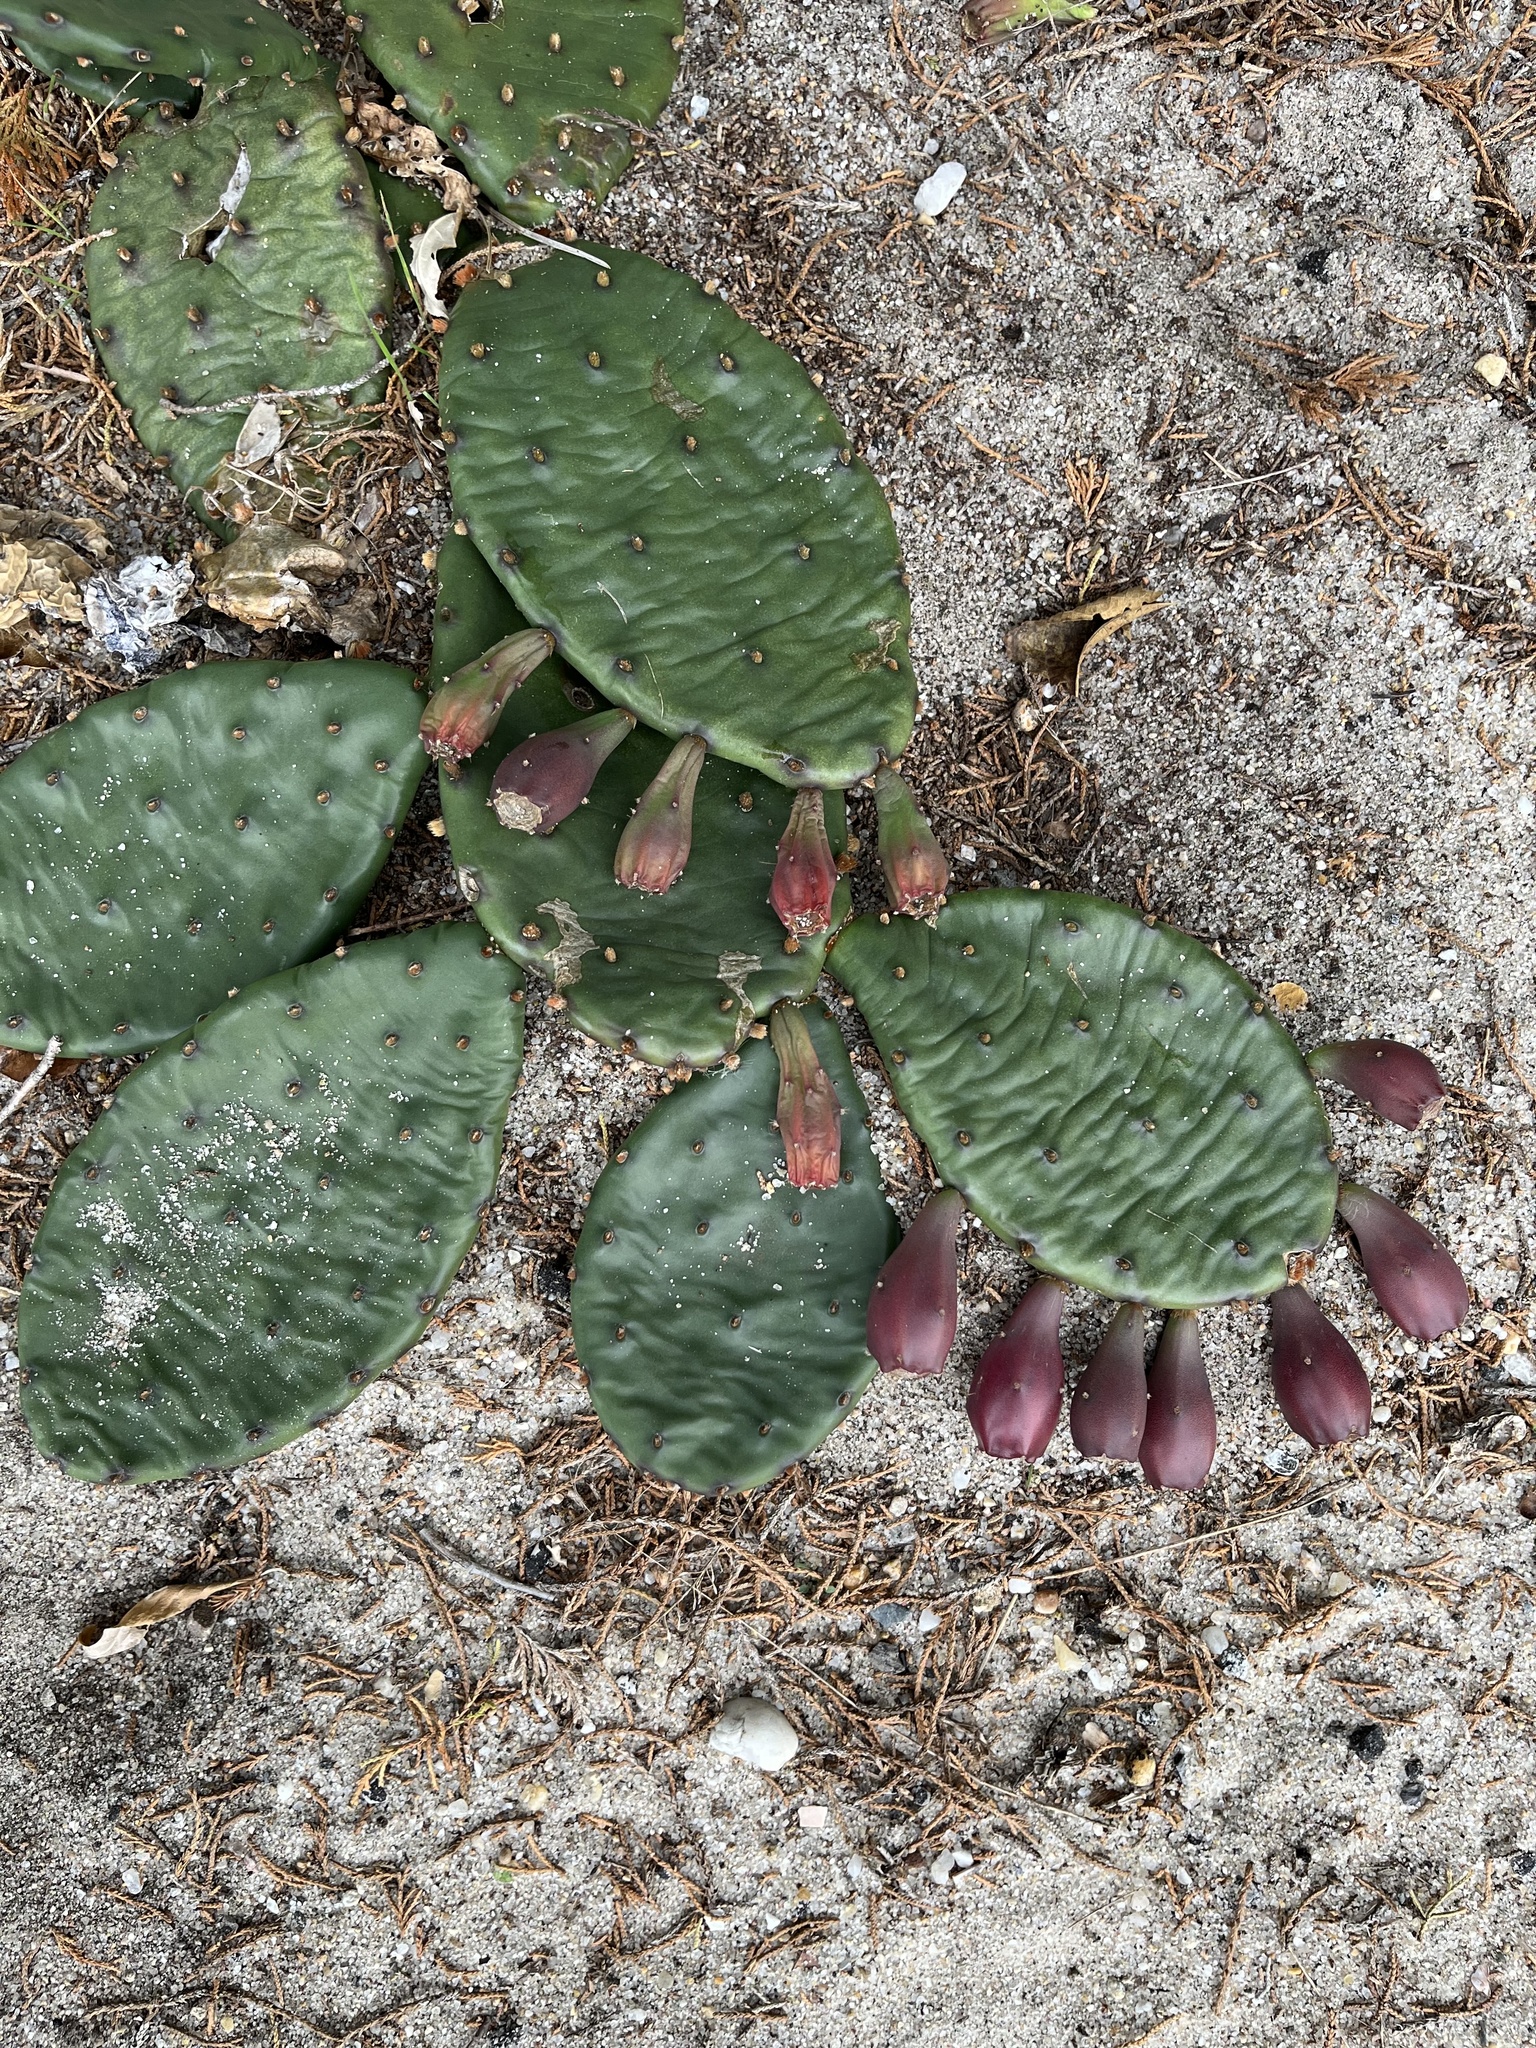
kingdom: Plantae
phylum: Tracheophyta
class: Magnoliopsida
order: Caryophyllales
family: Cactaceae
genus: Opuntia
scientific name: Opuntia humifusa
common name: Eastern prickly-pear
